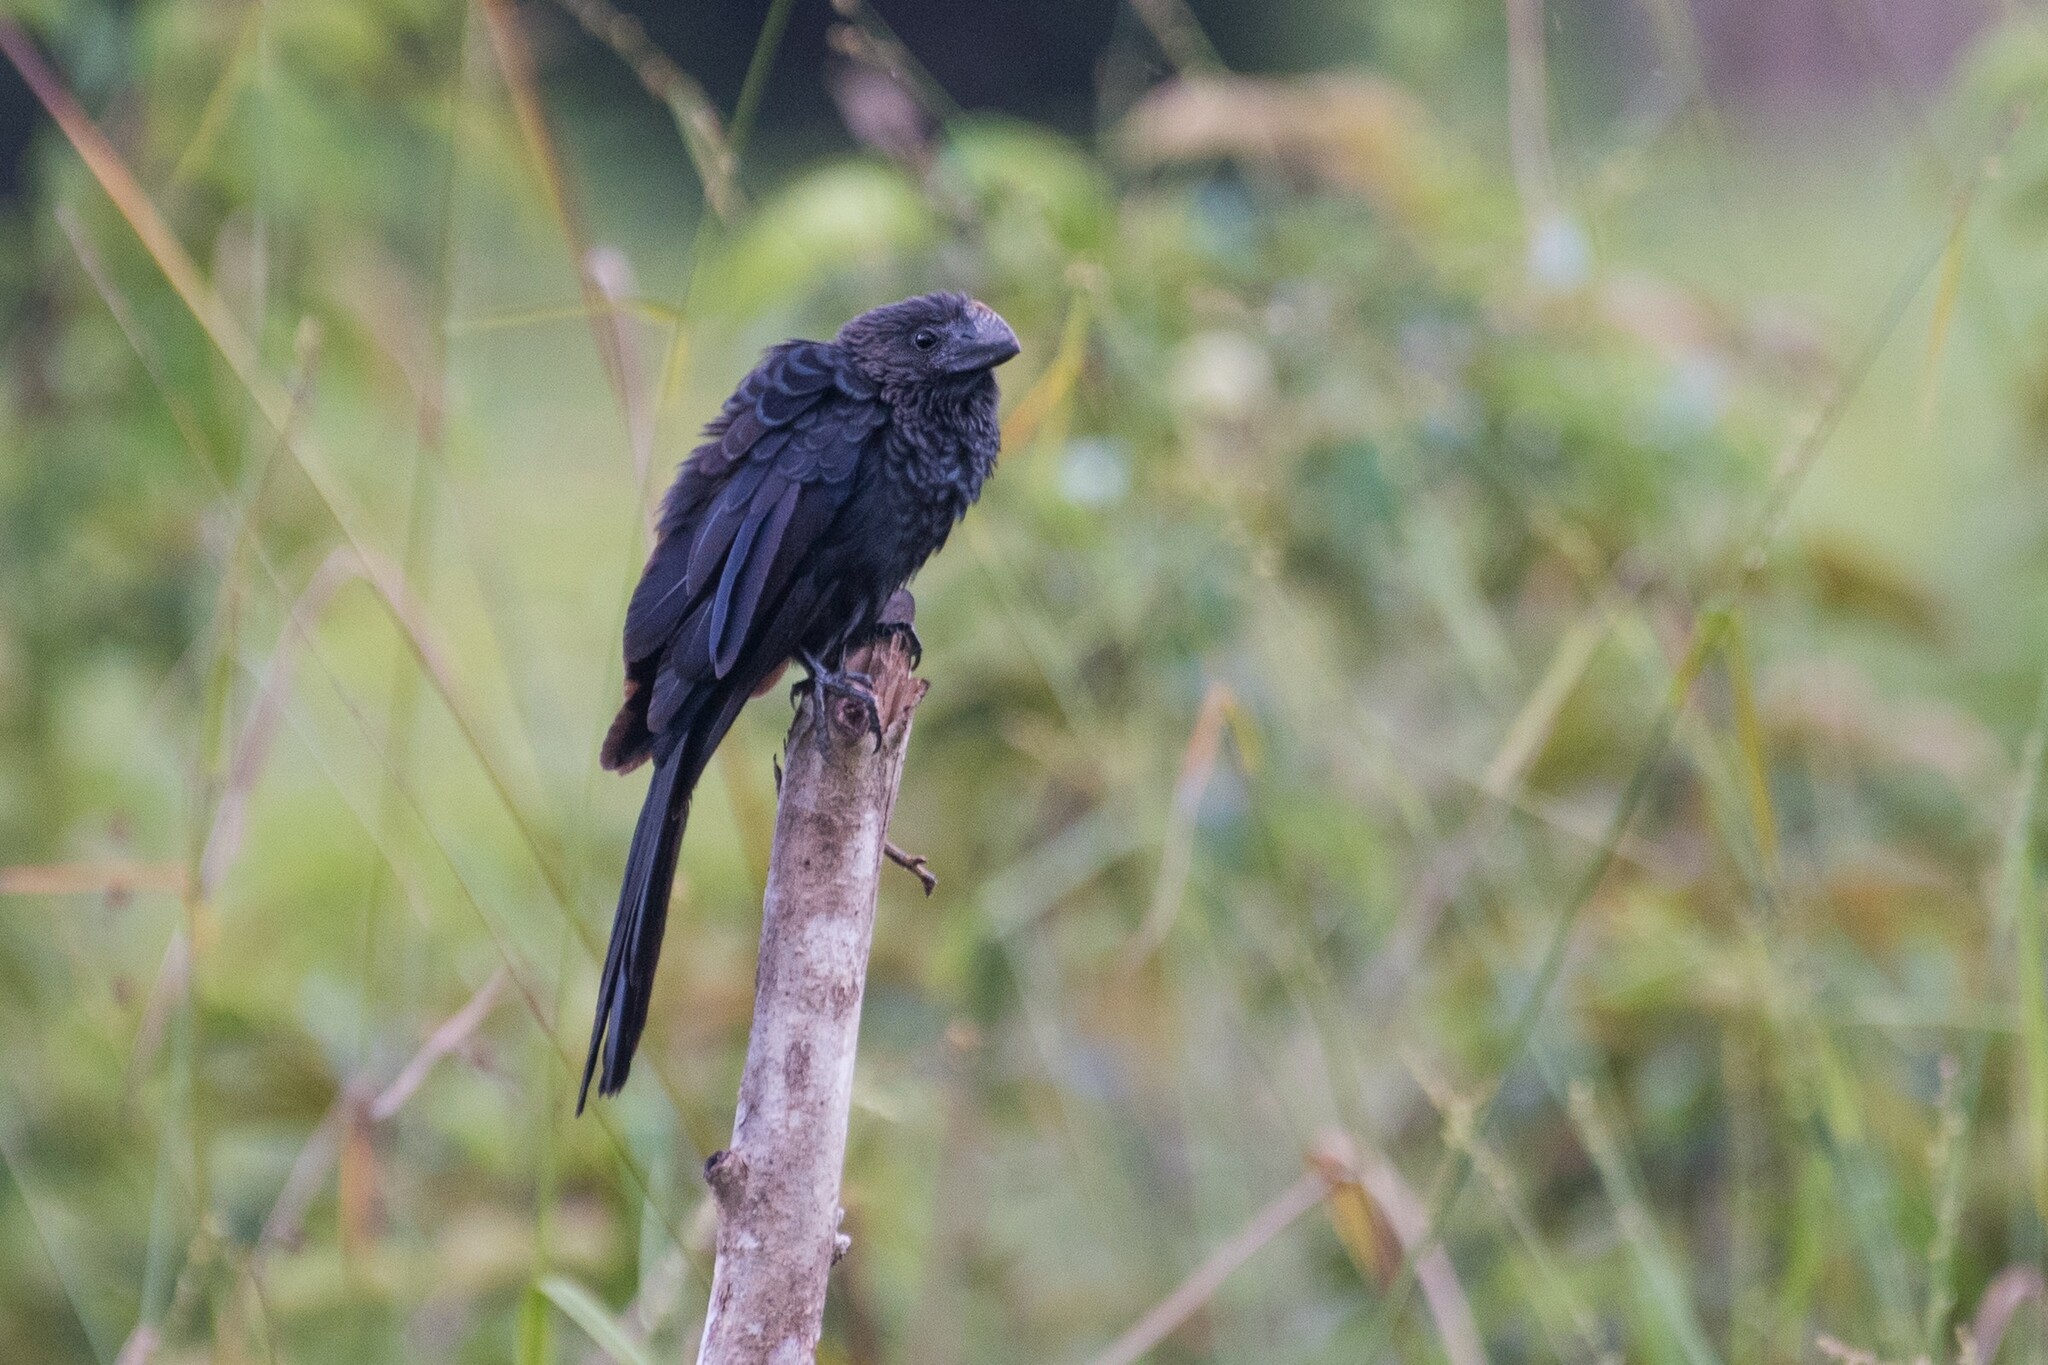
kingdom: Animalia
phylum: Chordata
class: Aves
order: Cuculiformes
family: Cuculidae
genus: Crotophaga
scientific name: Crotophaga ani
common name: Smooth-billed ani
